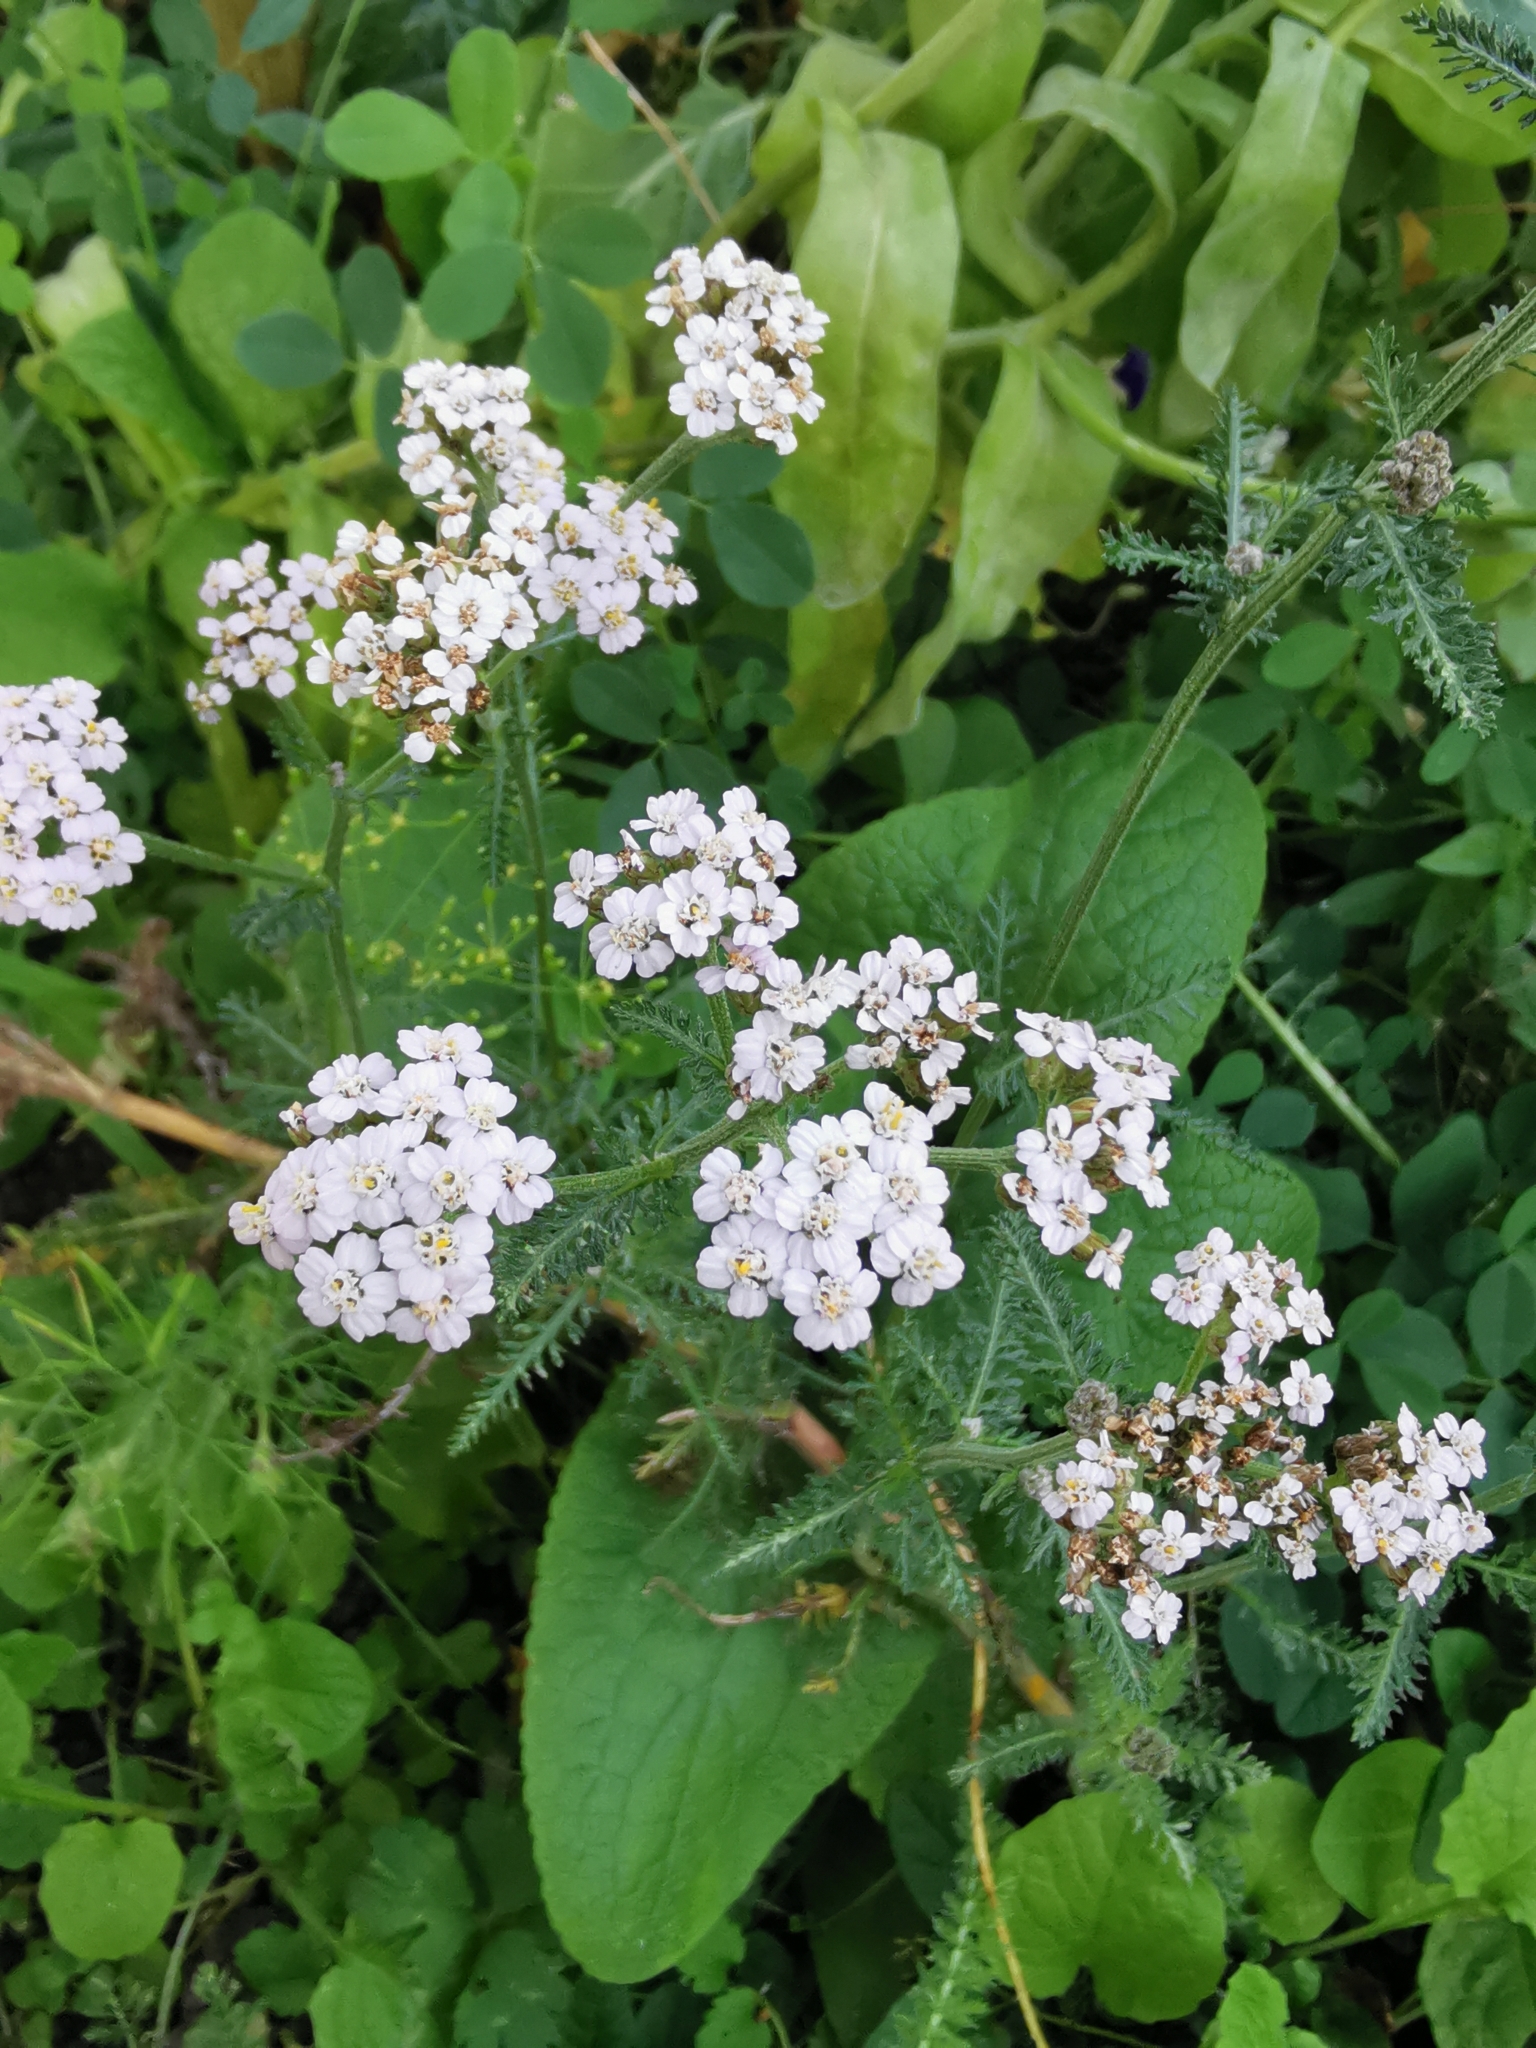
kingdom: Plantae
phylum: Tracheophyta
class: Magnoliopsida
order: Asterales
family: Asteraceae
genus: Achillea
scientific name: Achillea millefolium
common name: Yarrow
